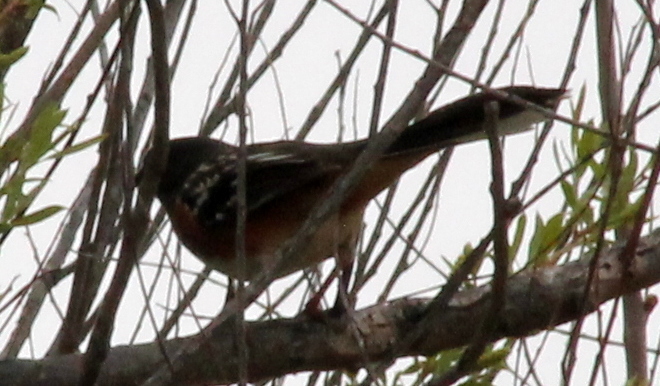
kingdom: Animalia
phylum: Chordata
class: Aves
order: Passeriformes
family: Passerellidae
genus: Pipilo
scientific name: Pipilo maculatus
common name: Spotted towhee
